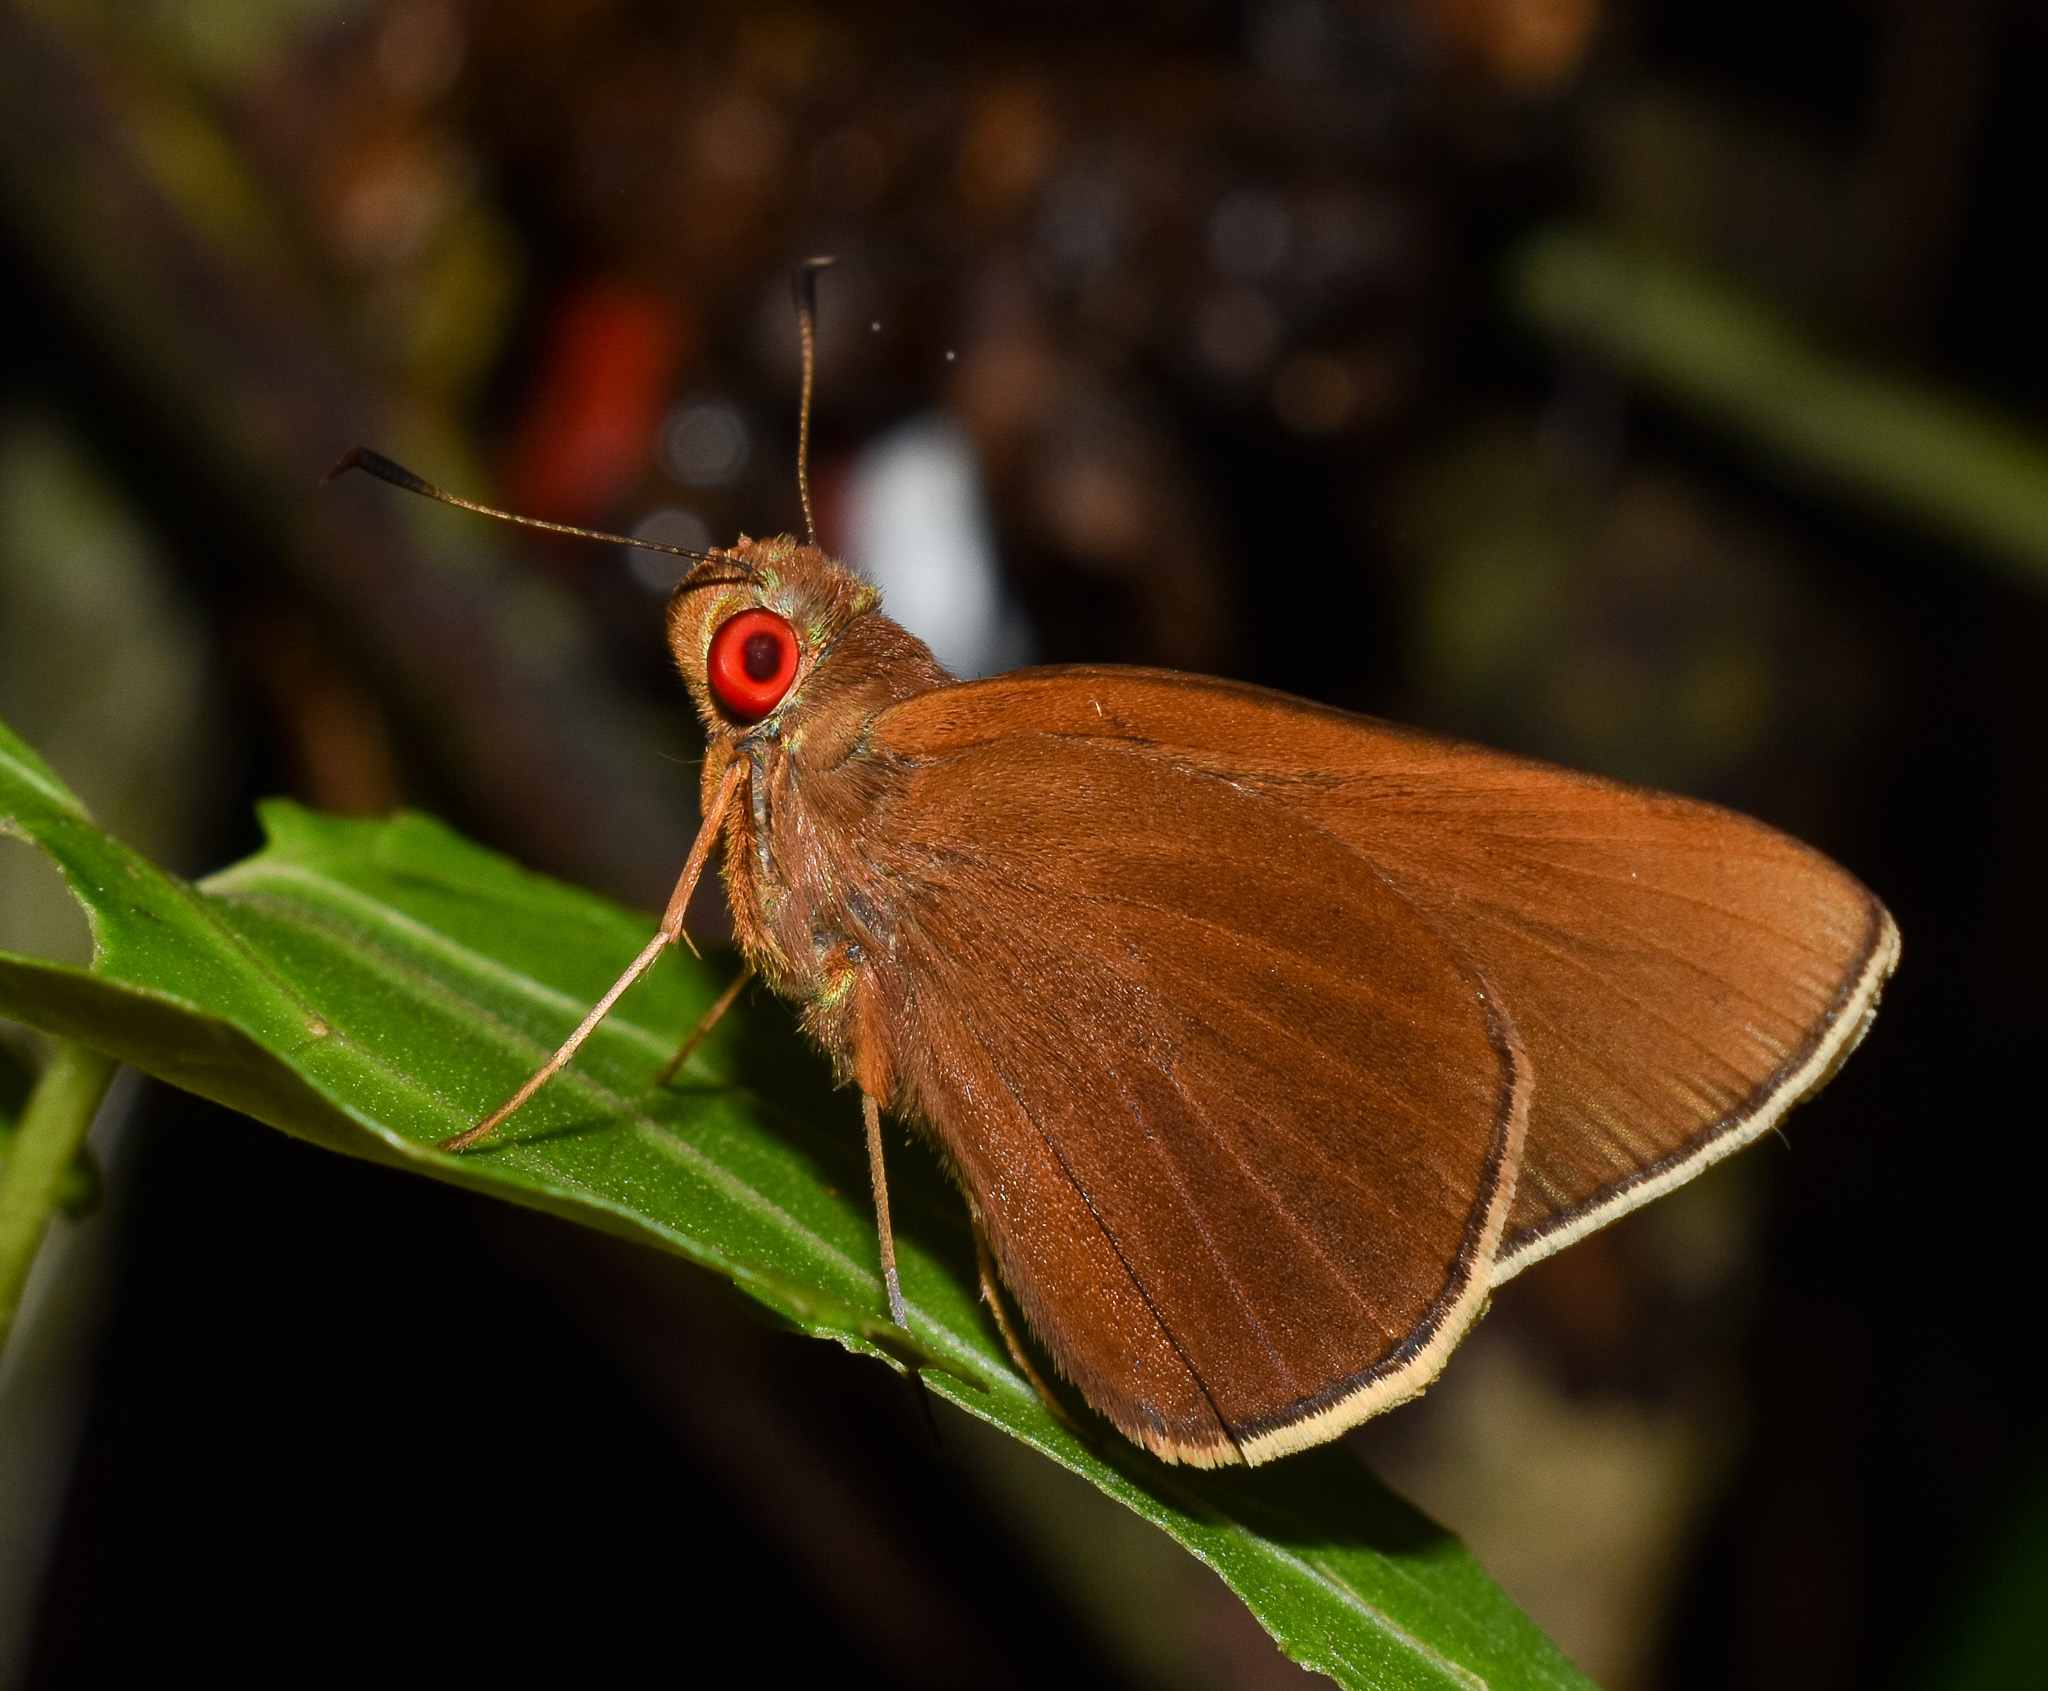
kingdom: Animalia
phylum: Arthropoda
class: Insecta
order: Lepidoptera
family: Hesperiidae
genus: Matapa
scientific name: Matapa aria
